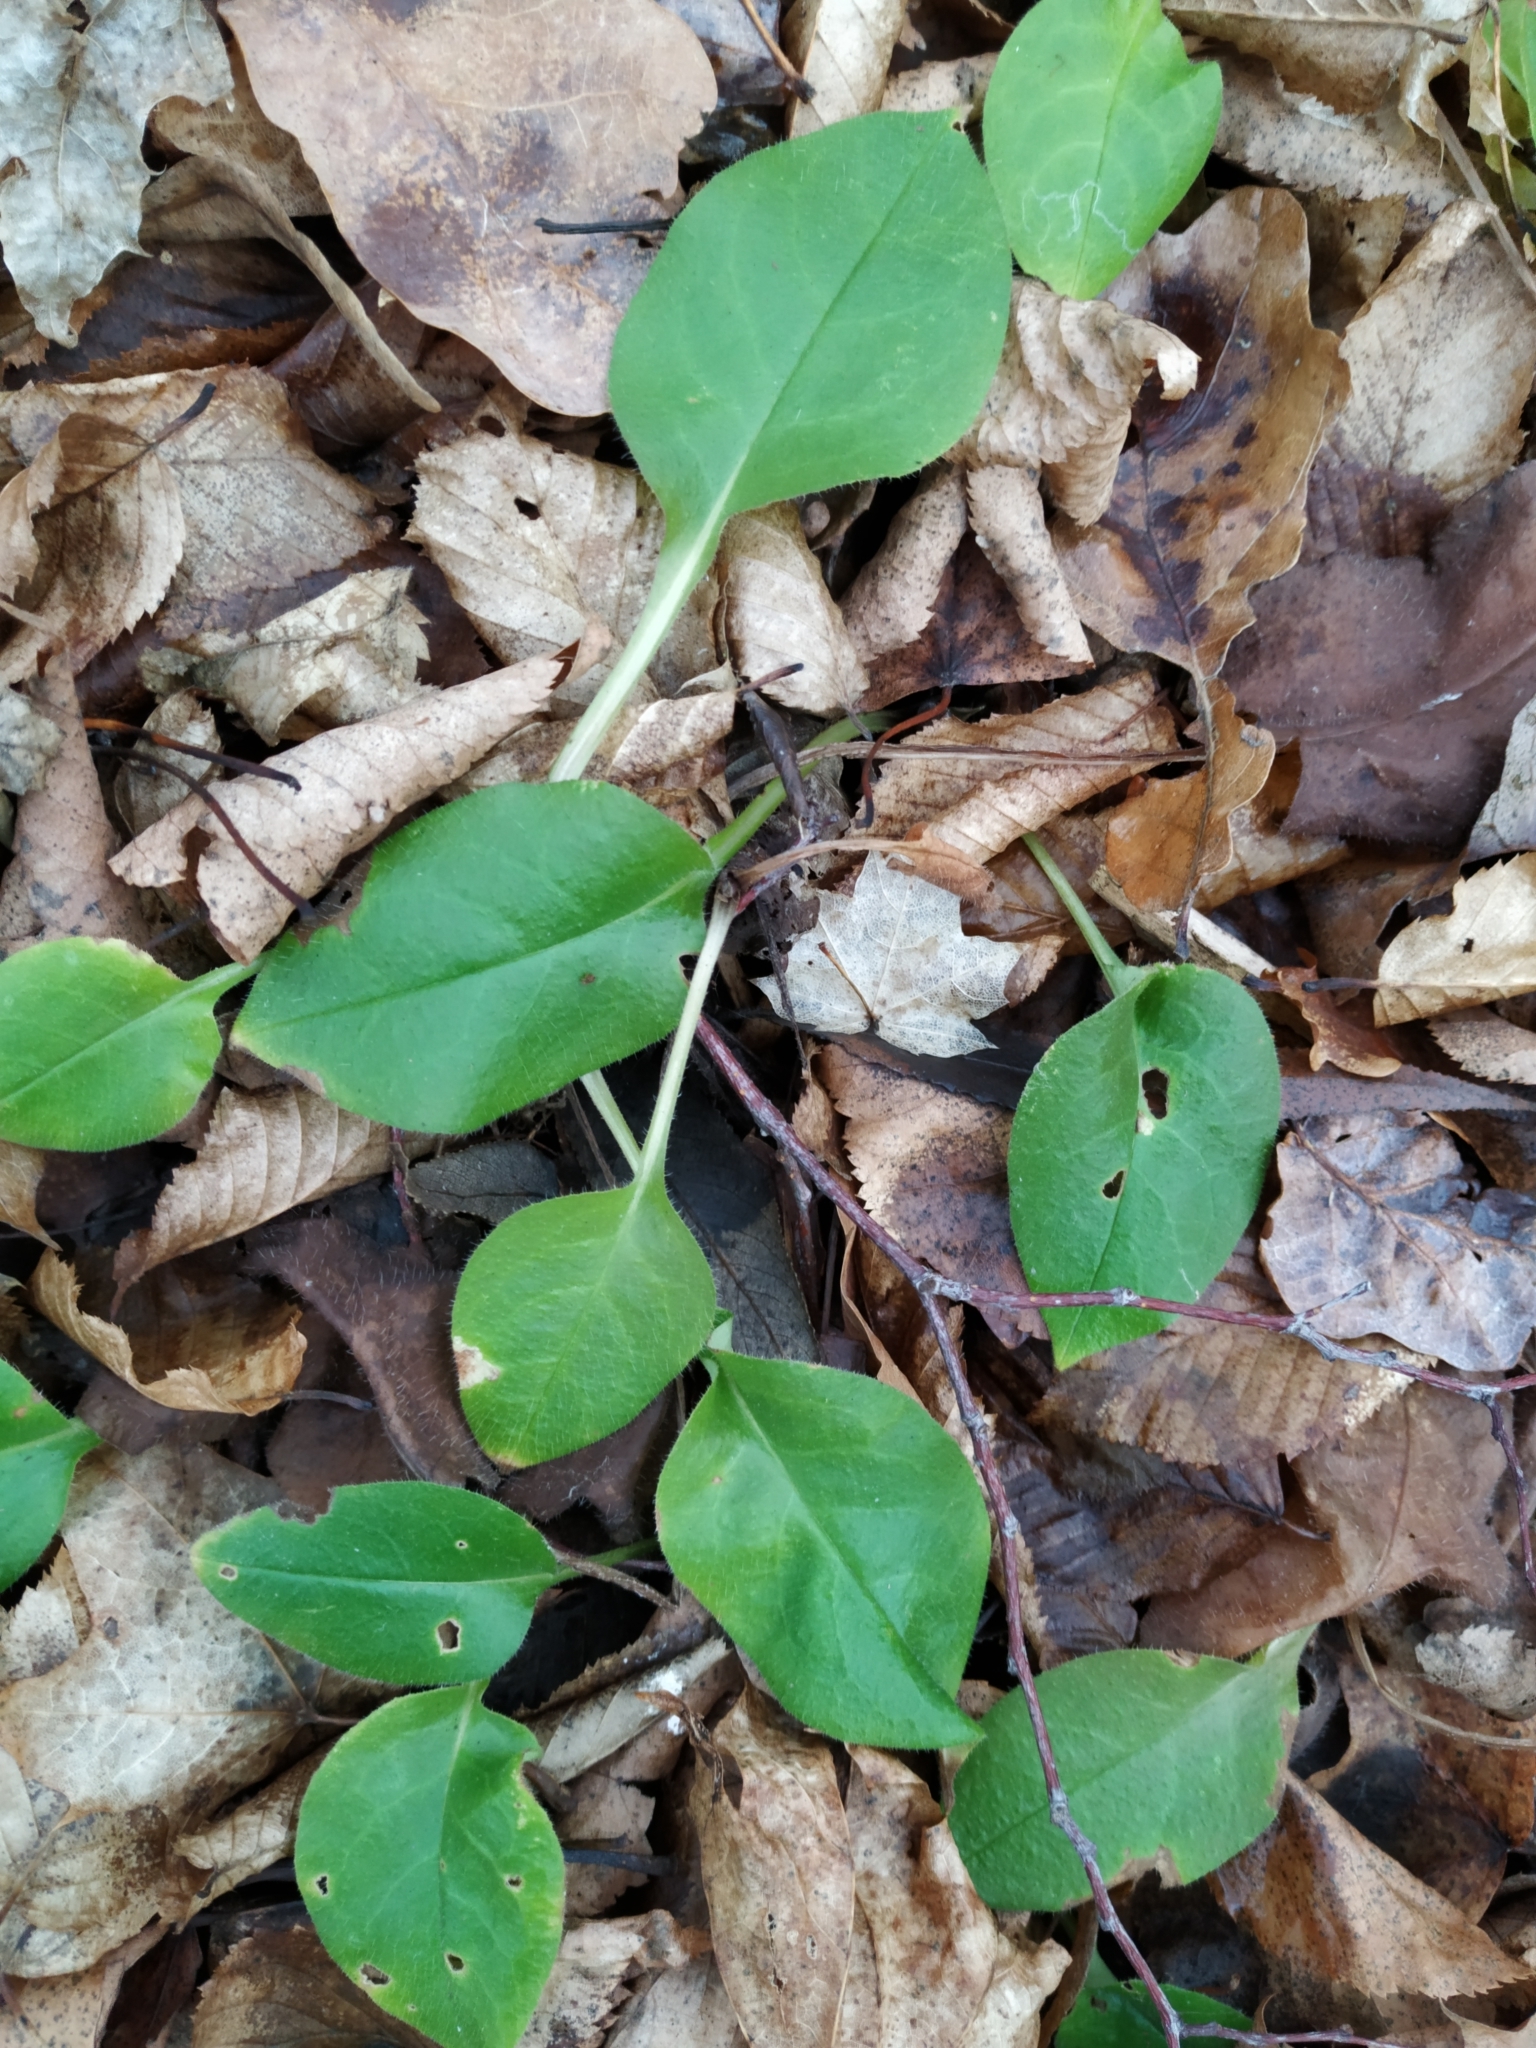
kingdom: Plantae
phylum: Tracheophyta
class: Magnoliopsida
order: Boraginales
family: Boraginaceae
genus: Pulmonaria
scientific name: Pulmonaria obscura
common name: Suffolk lungwort
